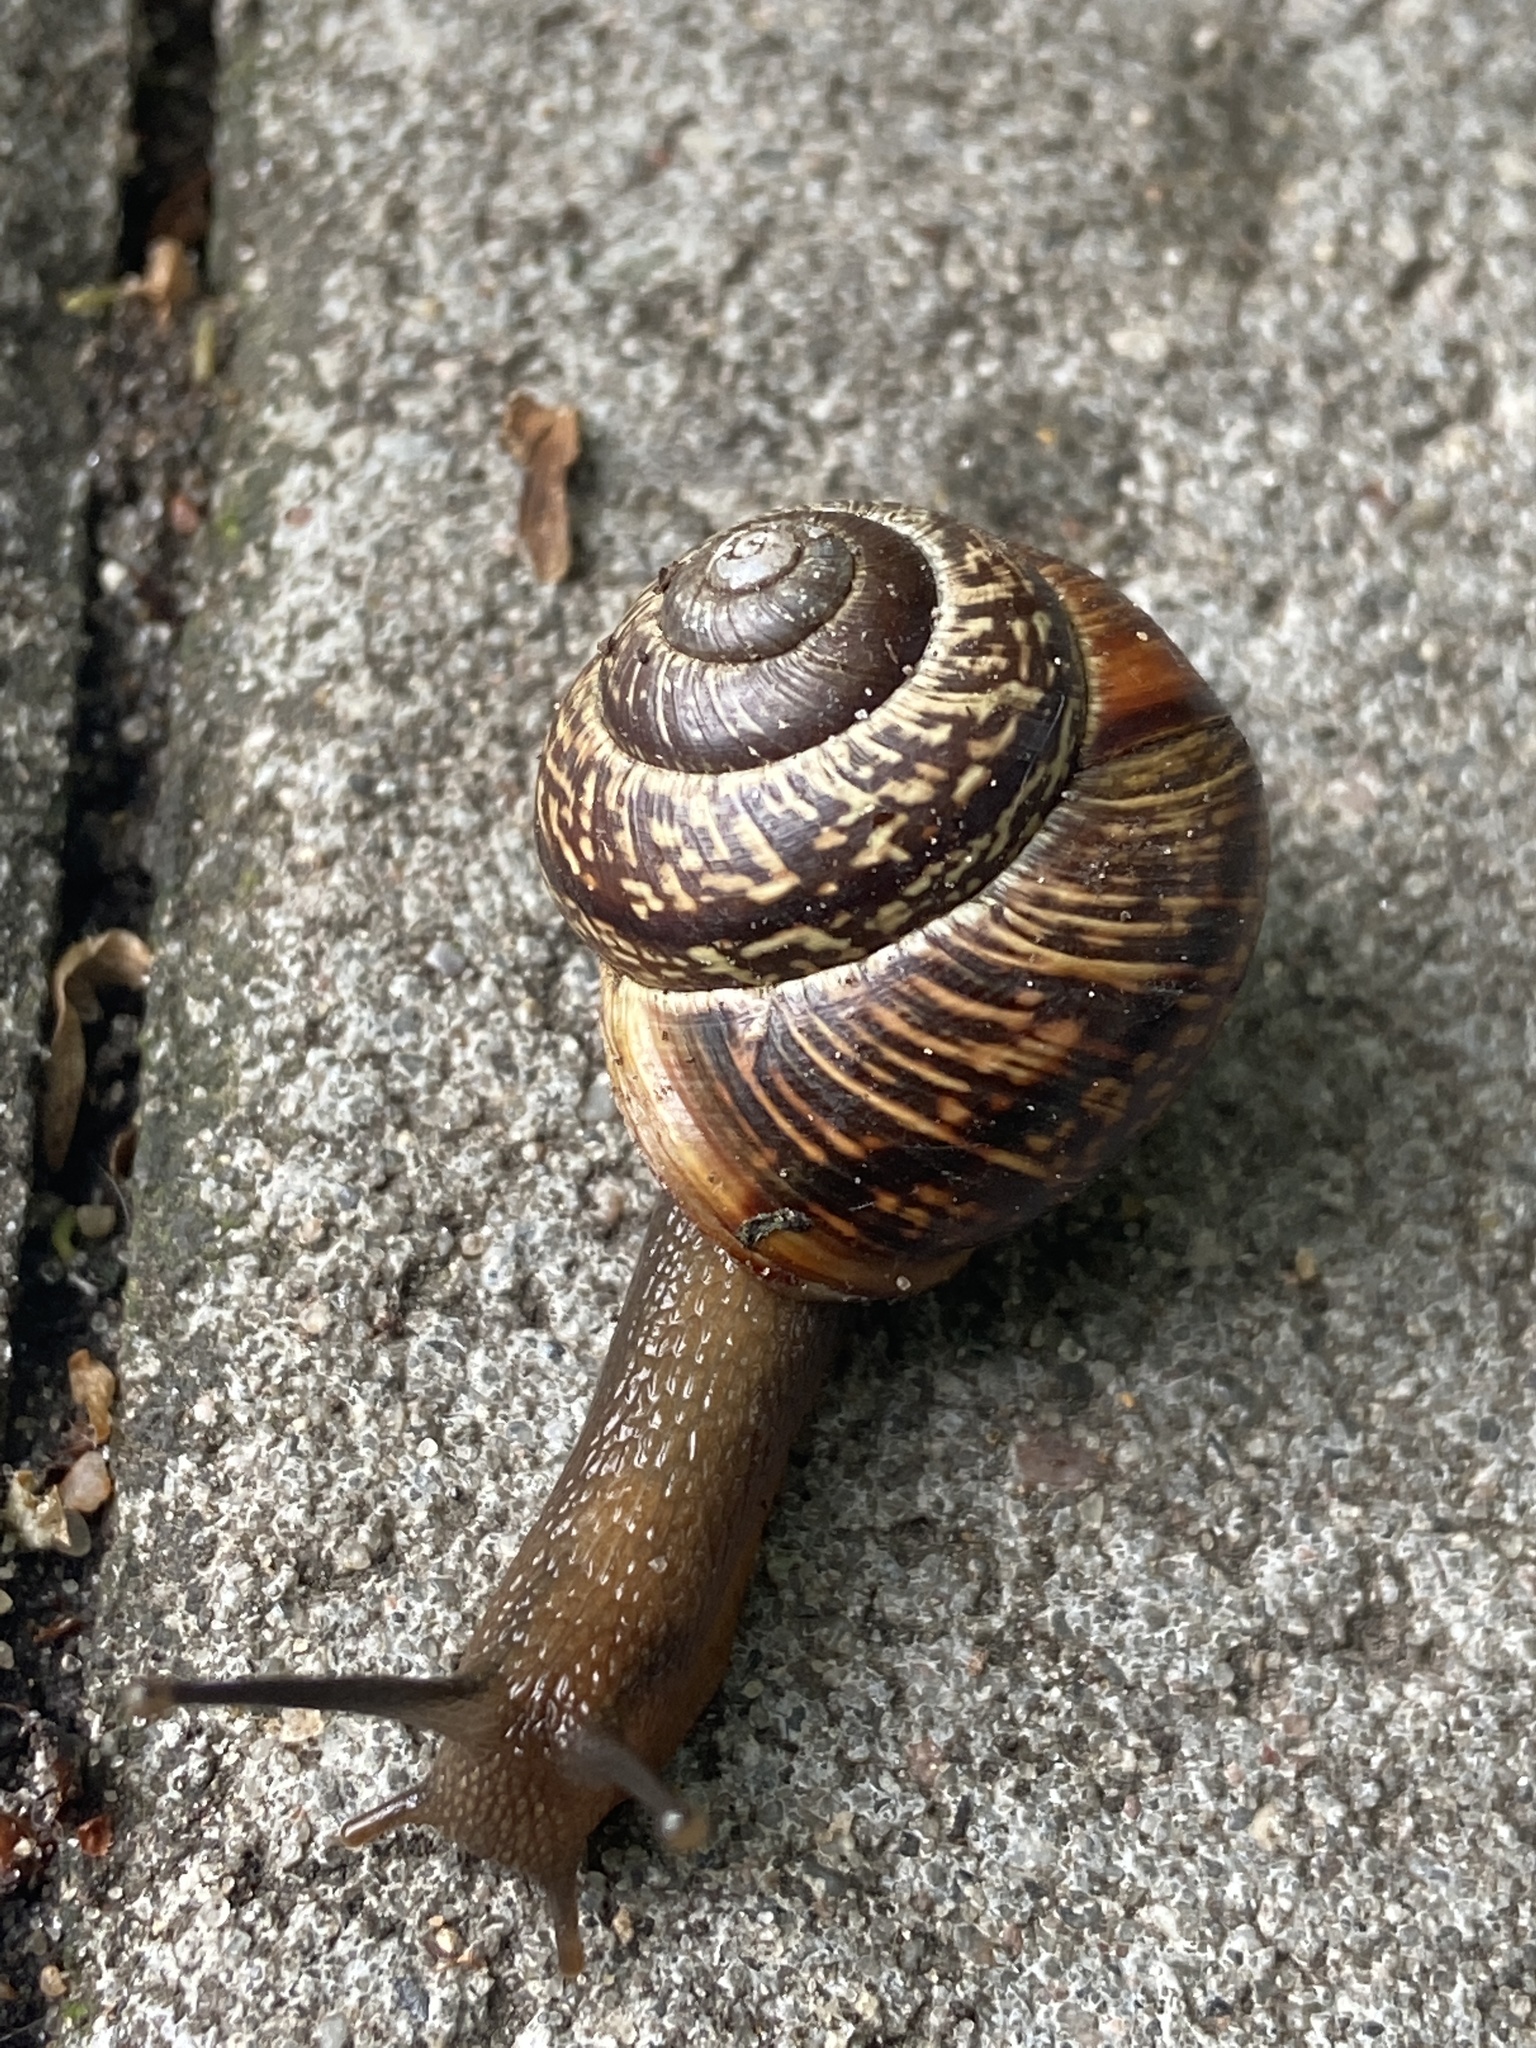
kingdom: Animalia
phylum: Mollusca
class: Gastropoda
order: Stylommatophora
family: Helicidae
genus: Arianta
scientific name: Arianta arbustorum
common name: Copse snail
